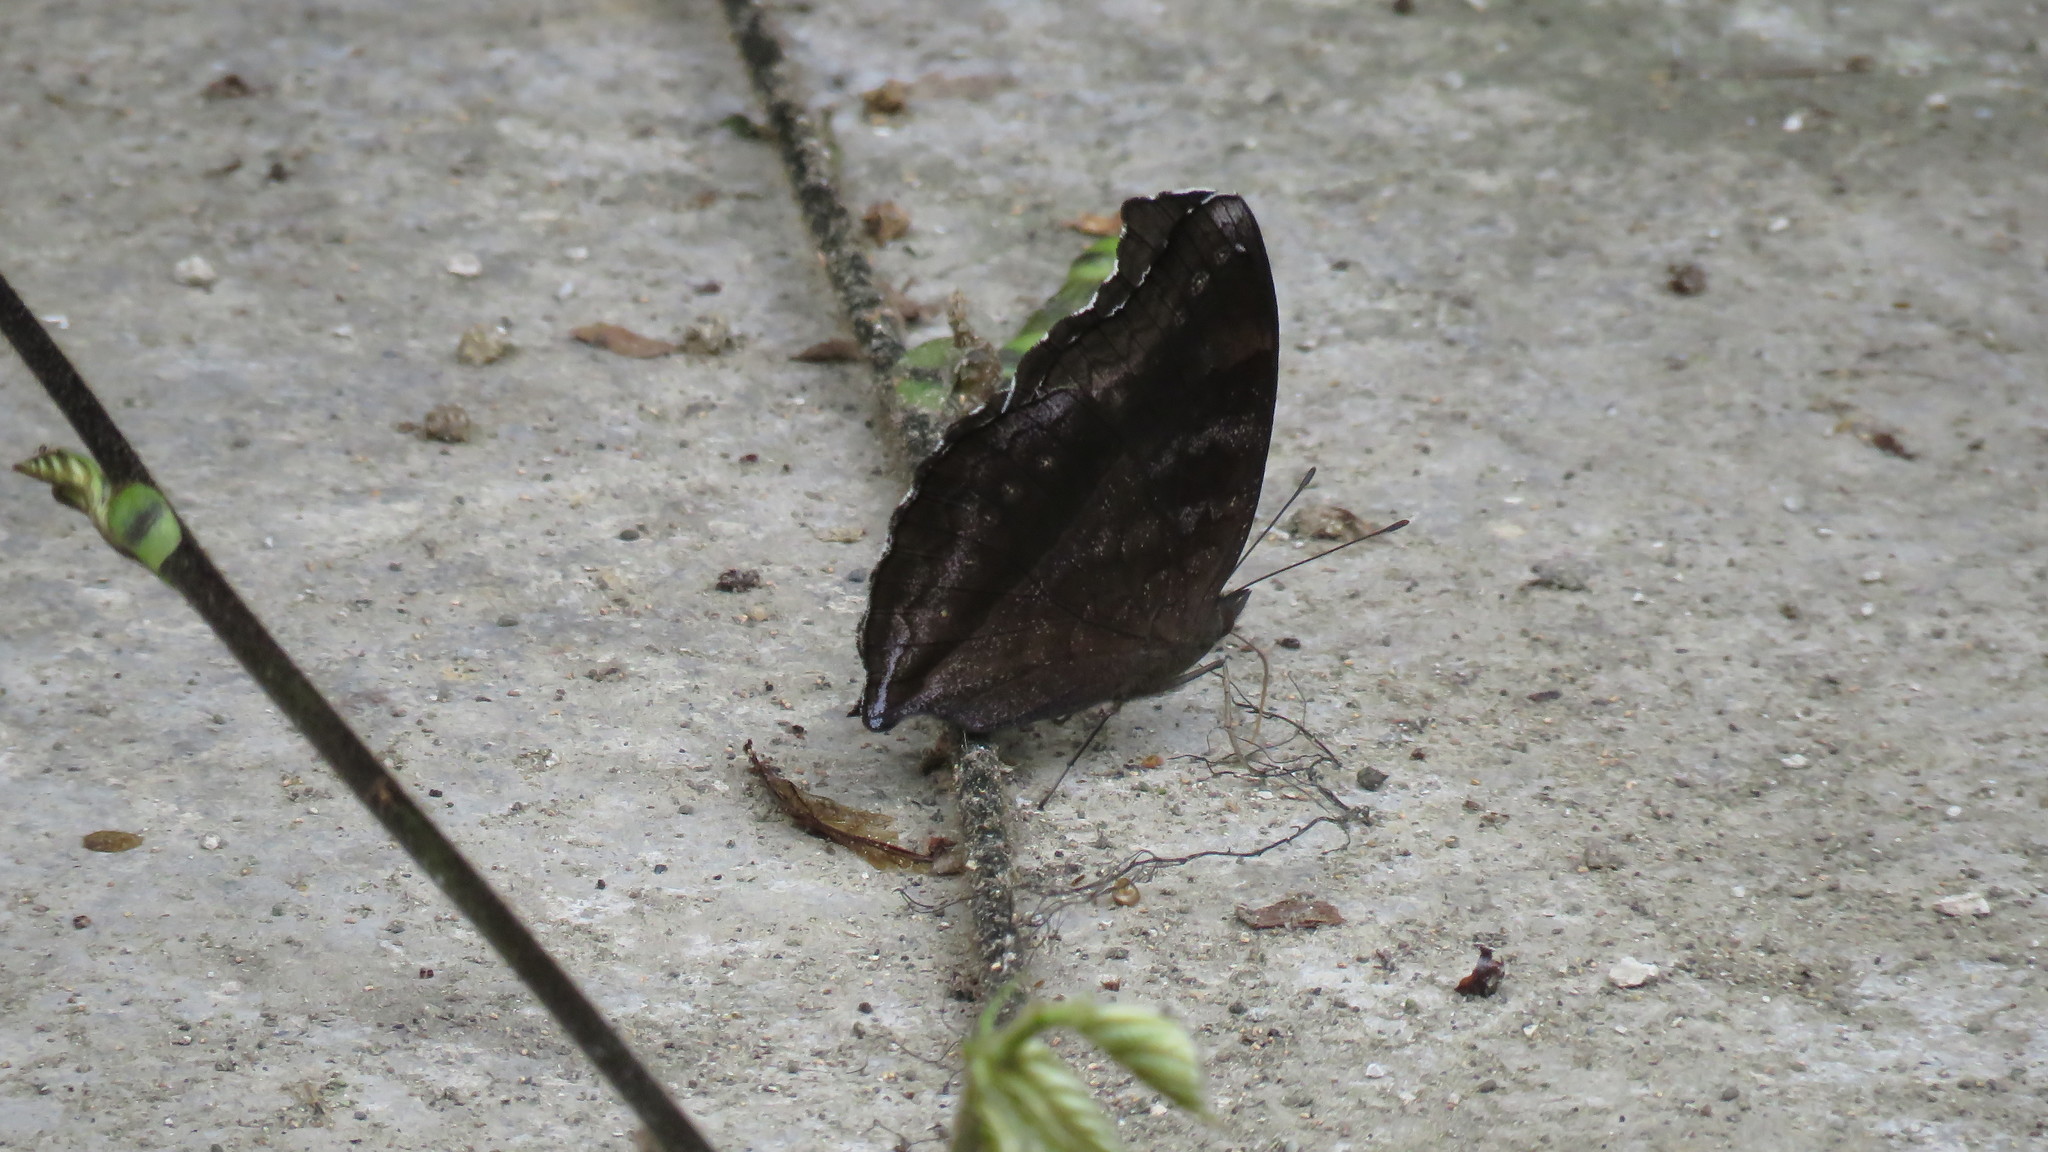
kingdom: Animalia
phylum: Arthropoda
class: Insecta
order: Lepidoptera
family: Nymphalidae
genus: Junonia
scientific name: Junonia iphita
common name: Chocolate pansy
